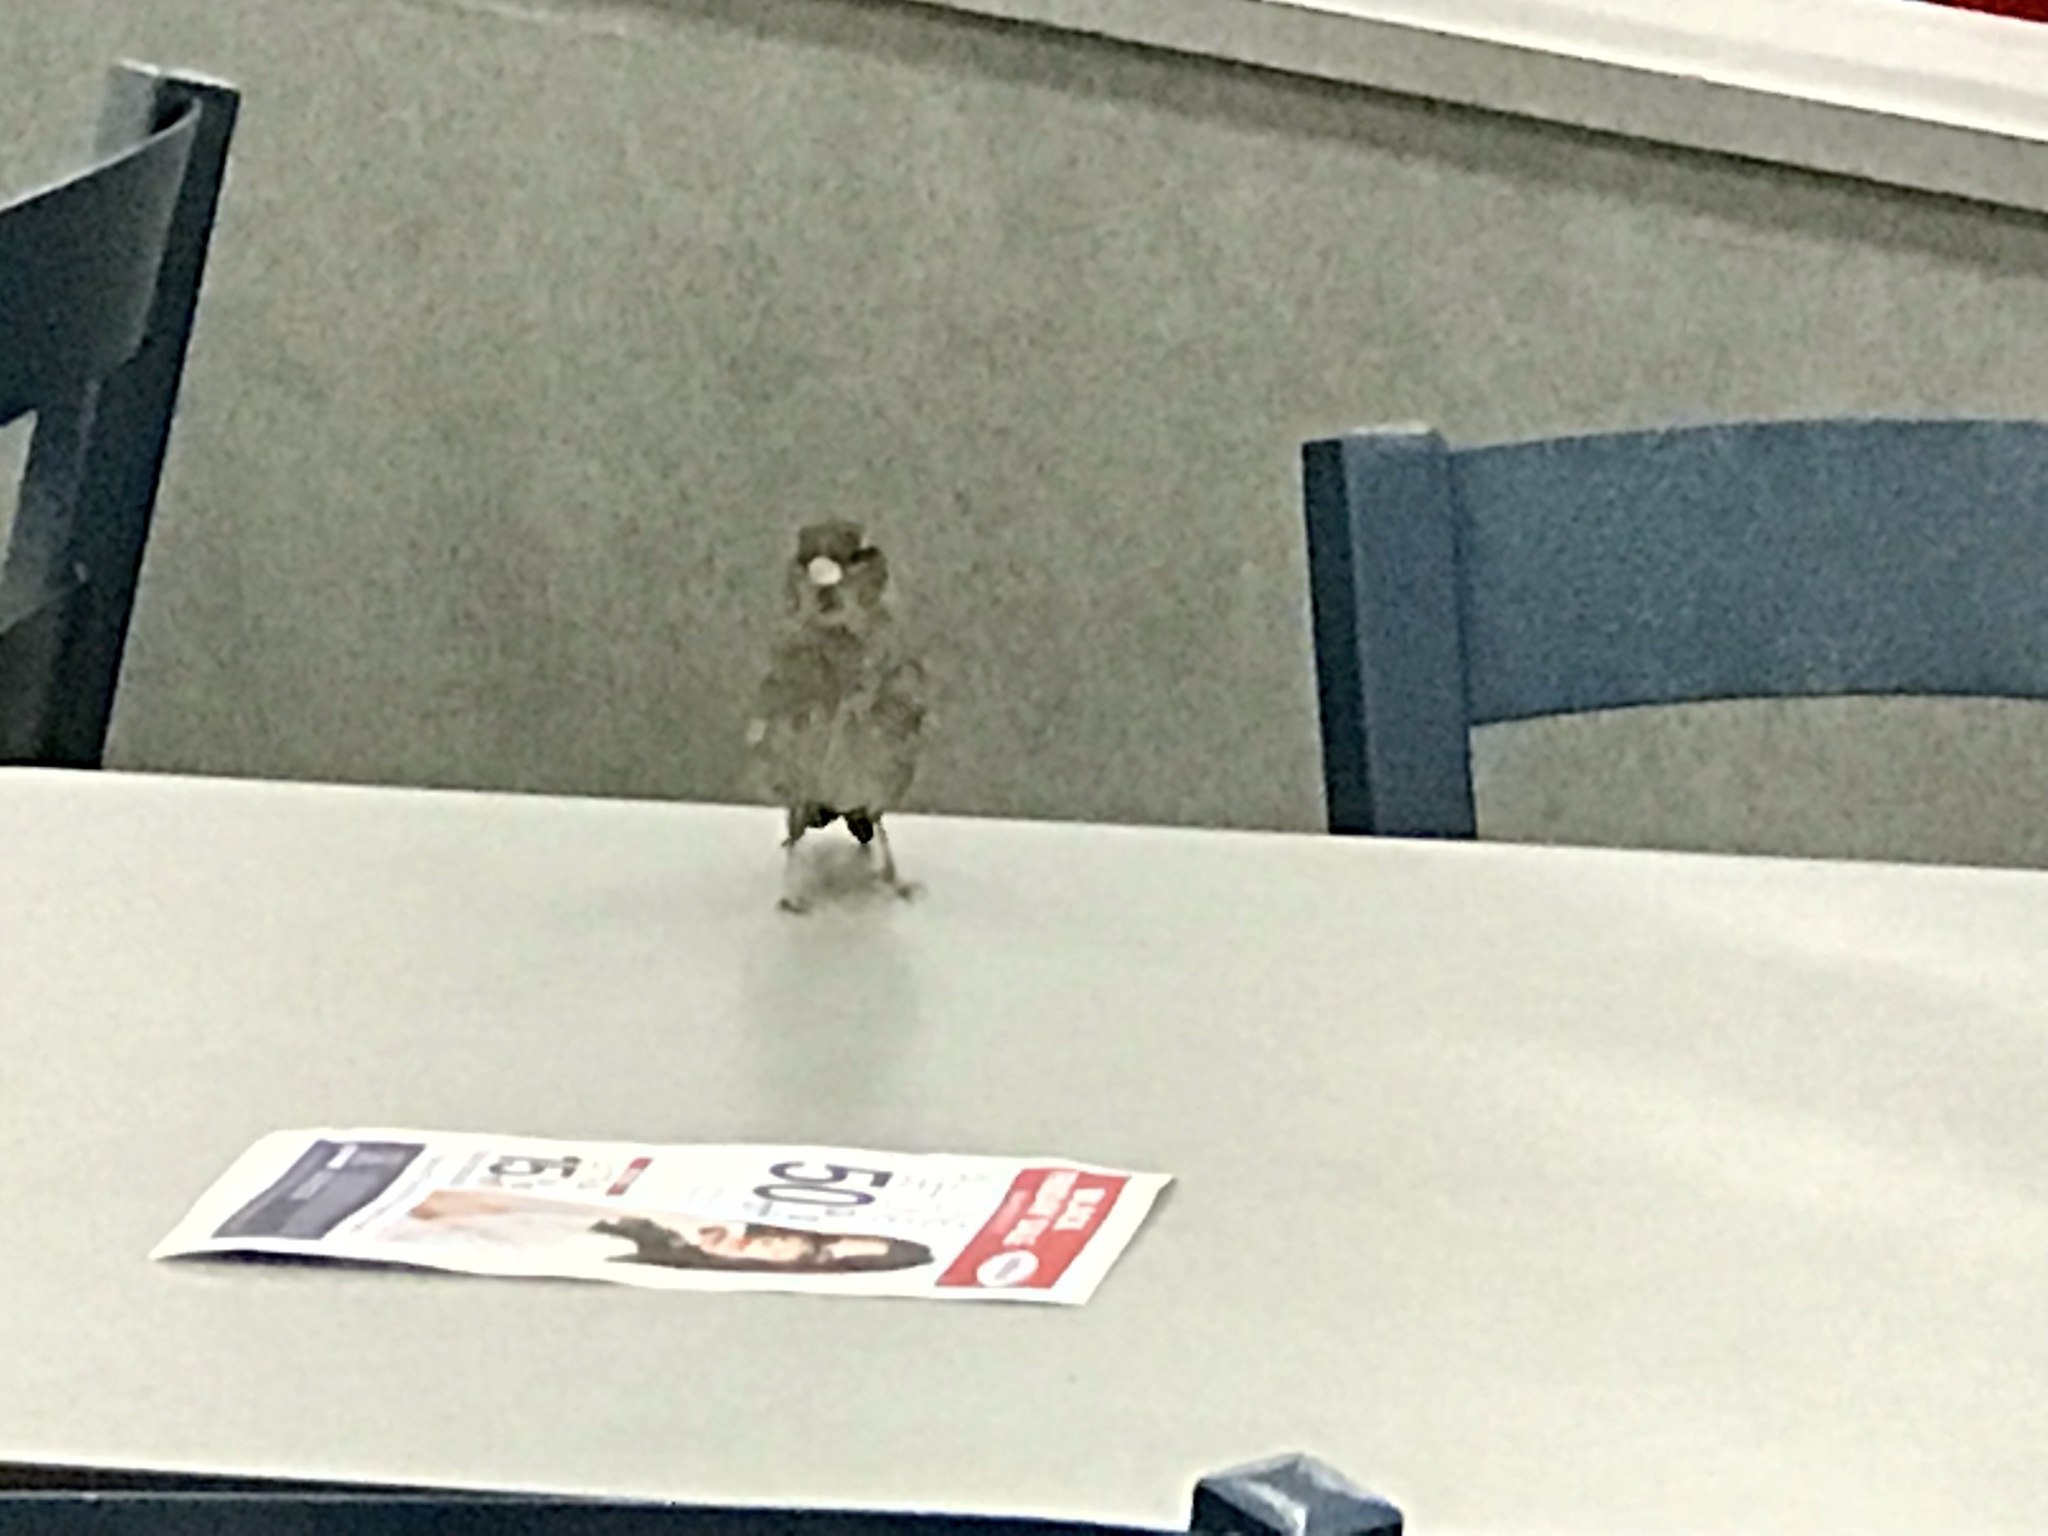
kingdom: Animalia
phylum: Chordata
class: Aves
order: Passeriformes
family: Passeridae
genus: Passer
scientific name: Passer domesticus
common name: House sparrow
